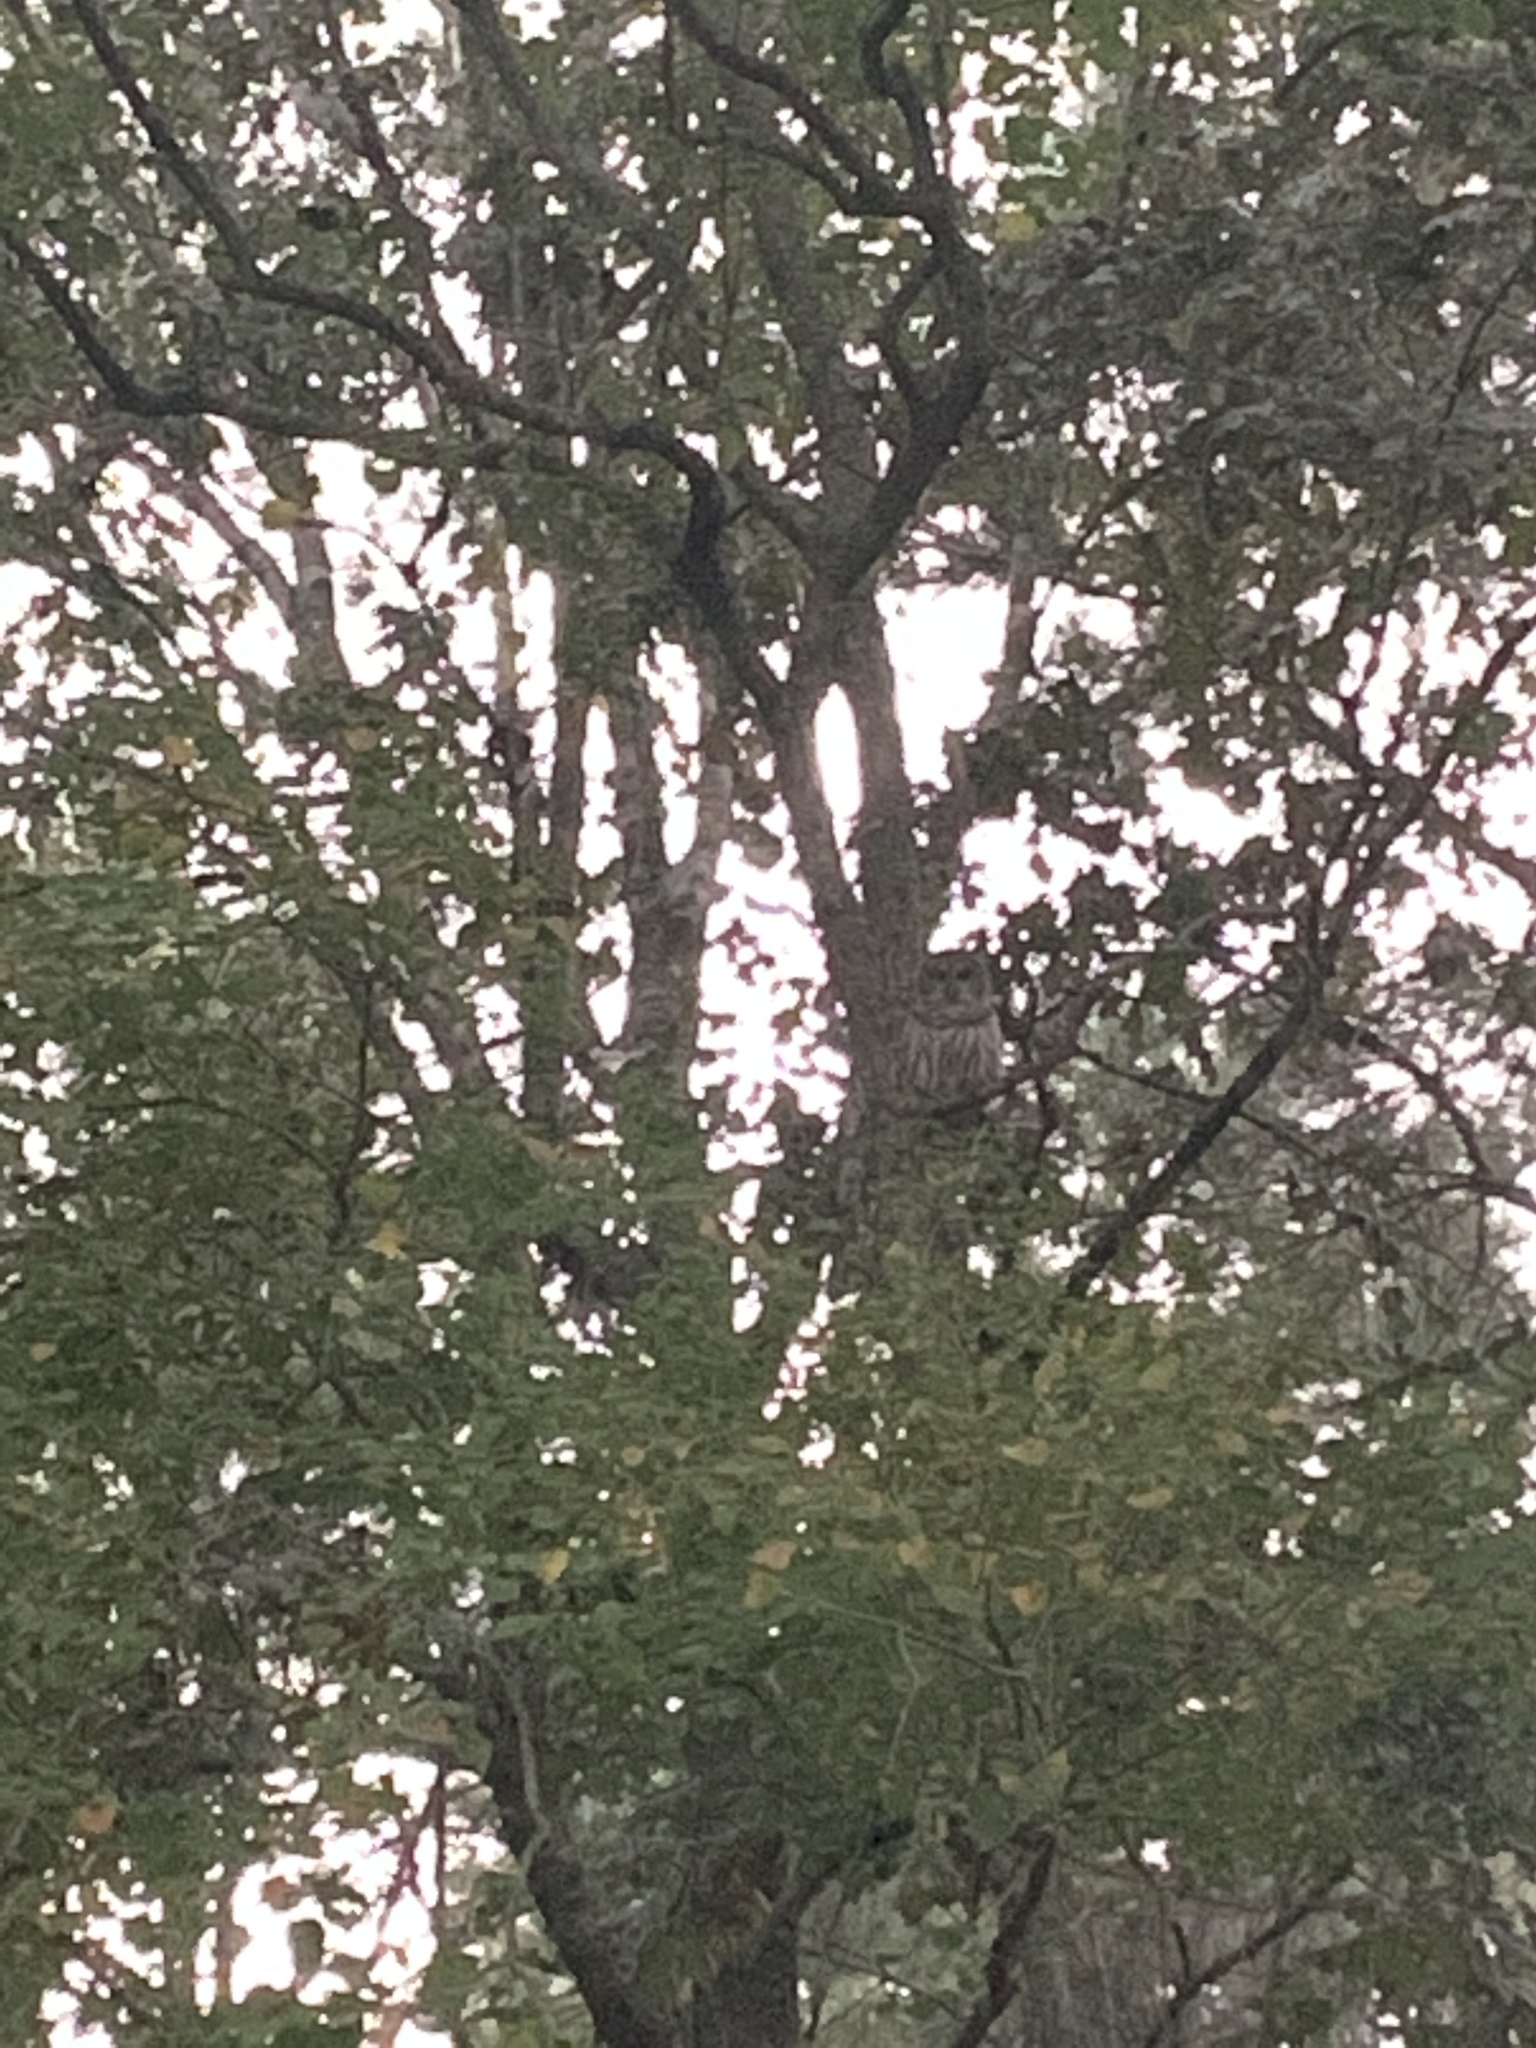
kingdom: Animalia
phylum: Chordata
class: Aves
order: Strigiformes
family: Strigidae
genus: Strix
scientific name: Strix varia
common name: Barred owl
